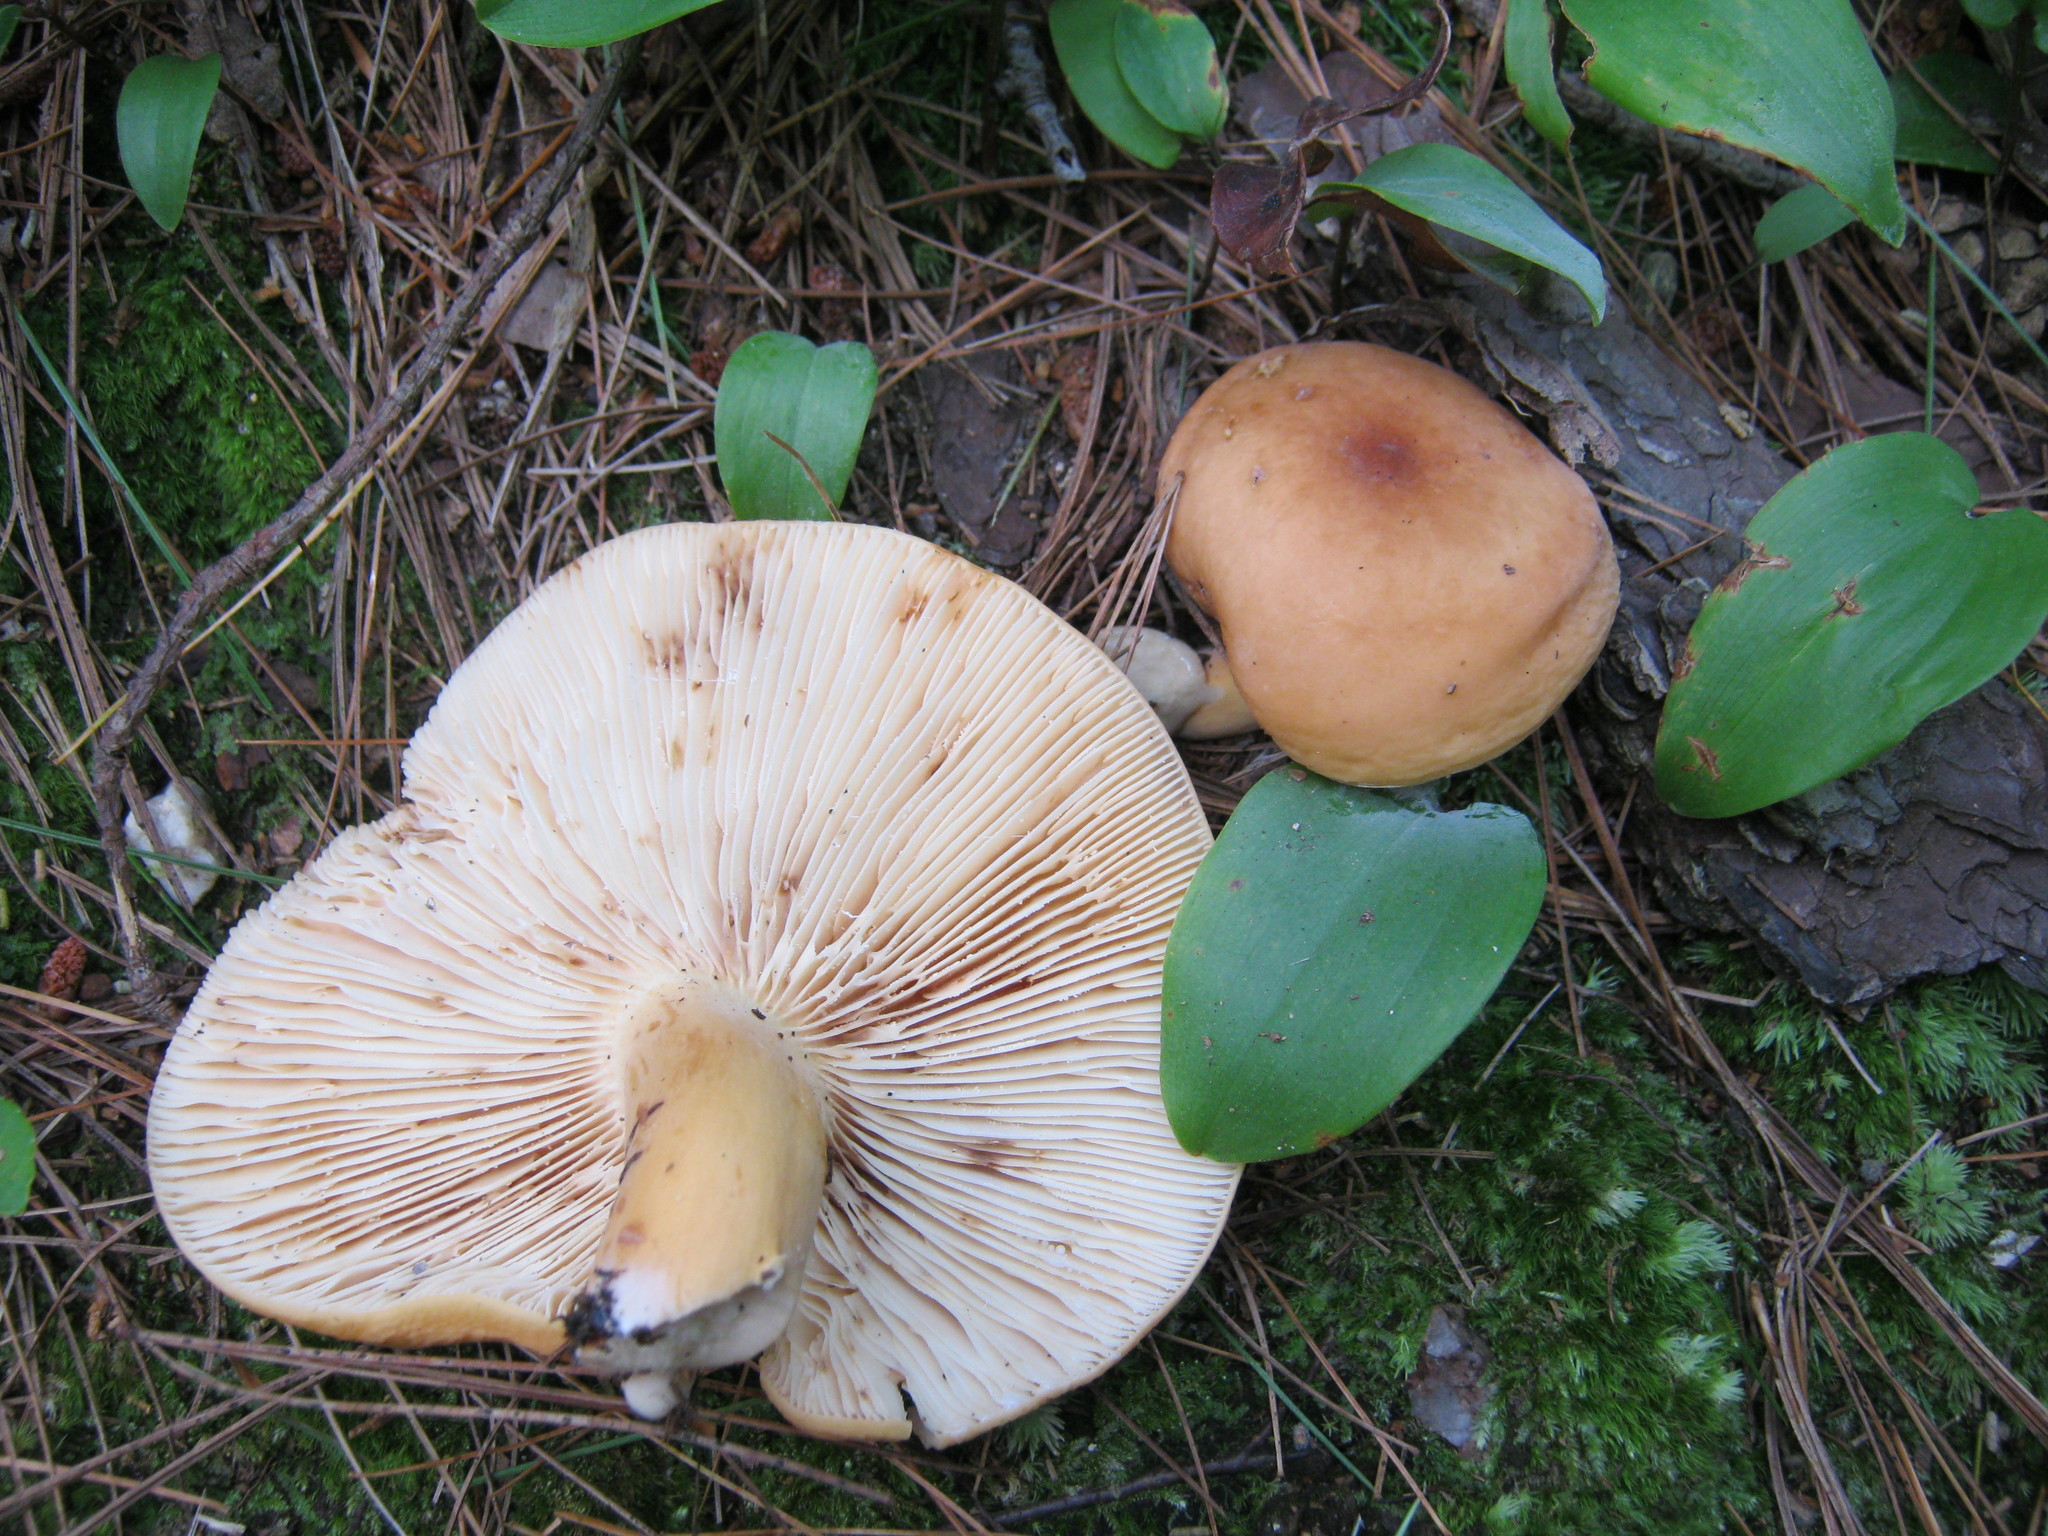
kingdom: Fungi
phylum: Basidiomycota
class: Agaricomycetes
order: Russulales
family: Russulaceae
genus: Lactifluus
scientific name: Lactifluus volemus
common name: Fishy milkcap
